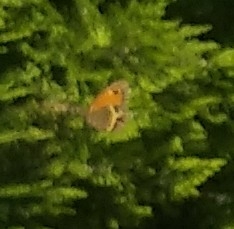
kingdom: Animalia
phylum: Arthropoda
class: Insecta
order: Lepidoptera
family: Nymphalidae
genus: Pyronia
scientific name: Pyronia bathseba
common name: Spanish gatekeeper
